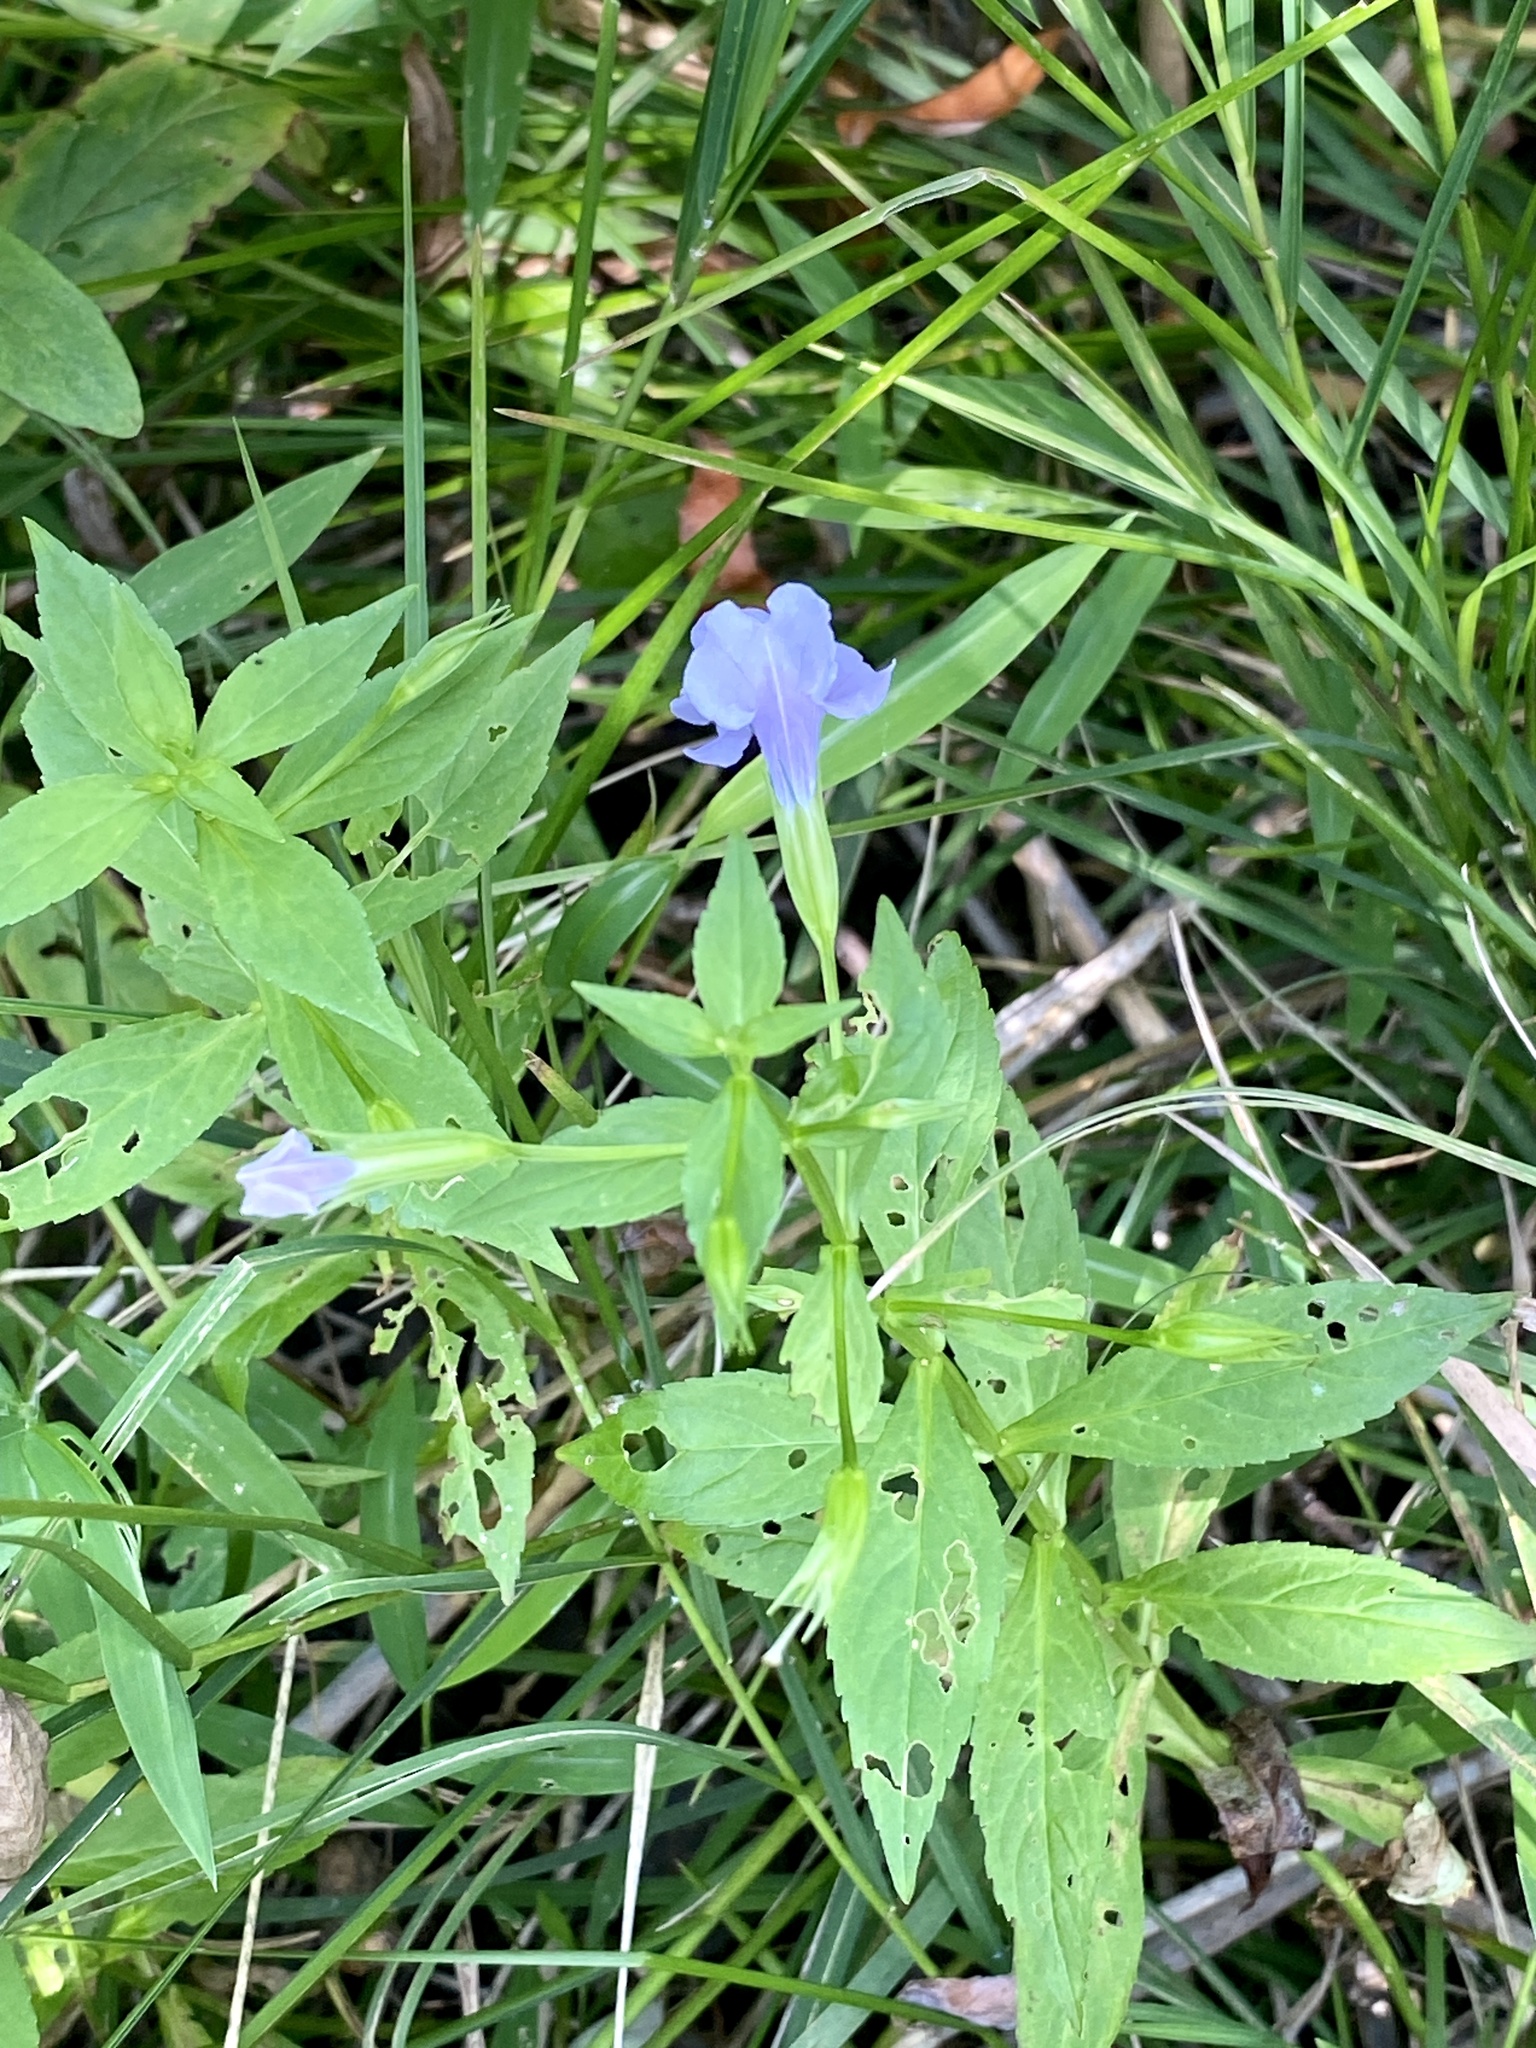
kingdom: Plantae
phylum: Tracheophyta
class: Magnoliopsida
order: Lamiales
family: Phrymaceae
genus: Mimulus
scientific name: Mimulus ringens
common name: Allegheny monkeyflower
